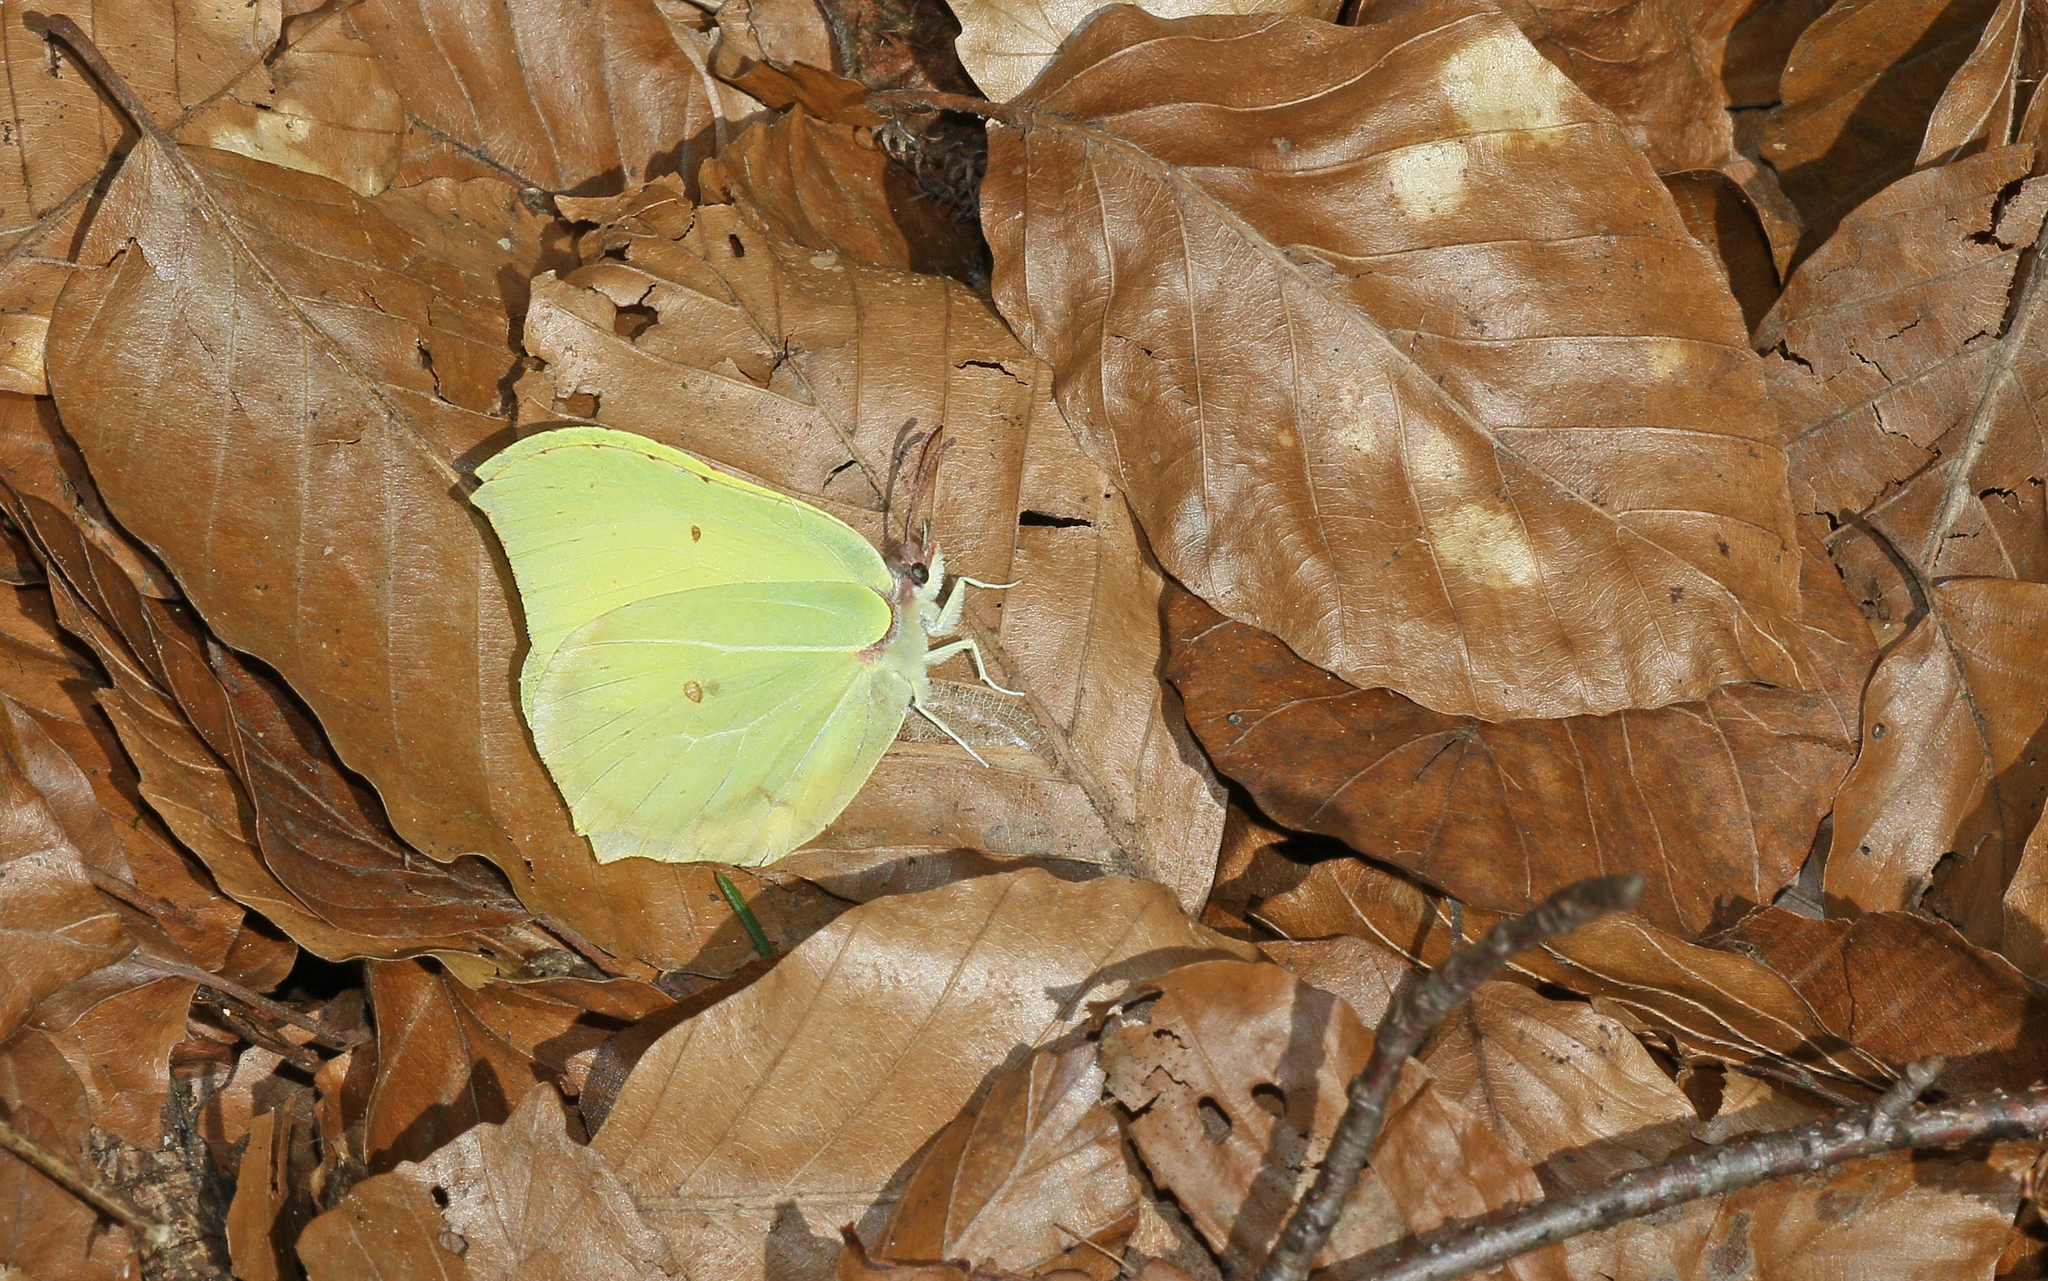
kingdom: Animalia
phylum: Arthropoda
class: Insecta
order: Lepidoptera
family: Pieridae
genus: Gonepteryx
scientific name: Gonepteryx rhamni
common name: Brimstone
